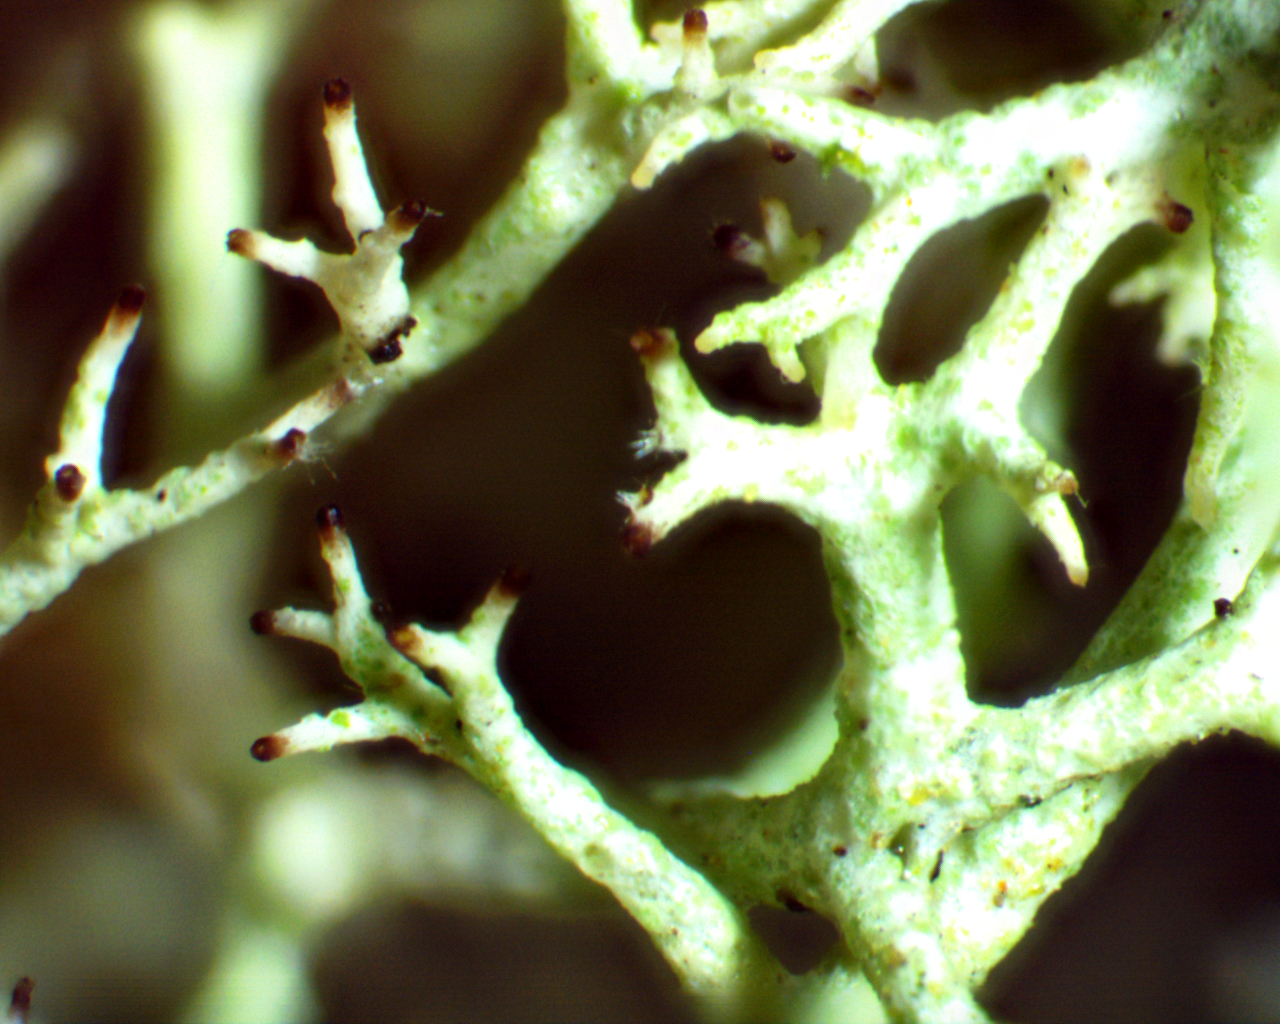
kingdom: Fungi
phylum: Ascomycota
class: Lecanoromycetes
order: Lecanorales
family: Cladoniaceae
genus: Cladonia
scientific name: Cladonia subtenuis
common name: Dixie reindeer lichen
